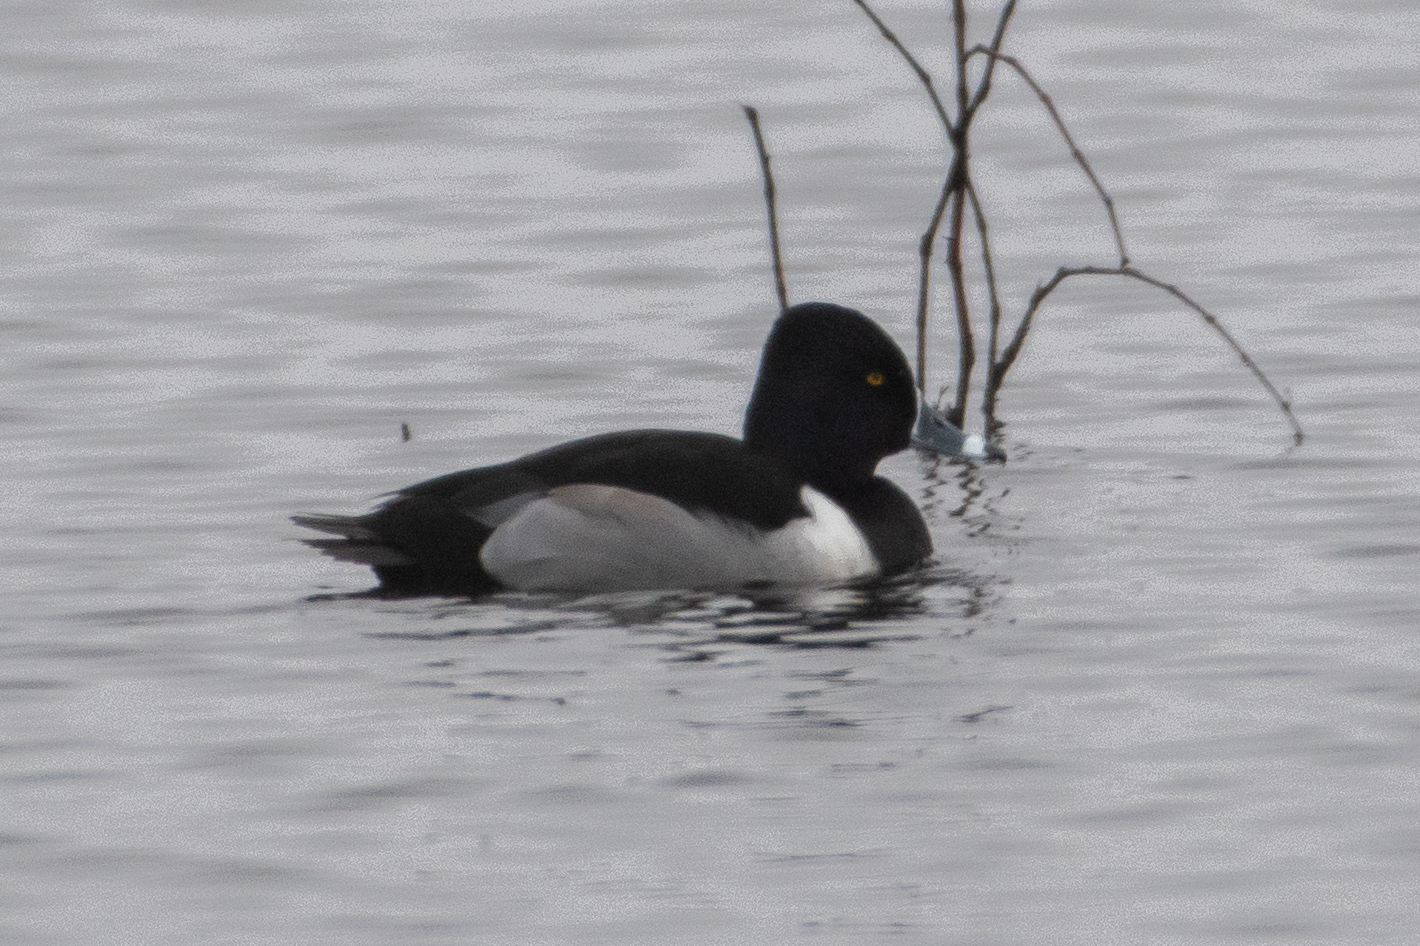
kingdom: Animalia
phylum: Chordata
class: Aves
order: Anseriformes
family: Anatidae
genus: Aythya
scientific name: Aythya collaris
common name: Ring-necked duck
